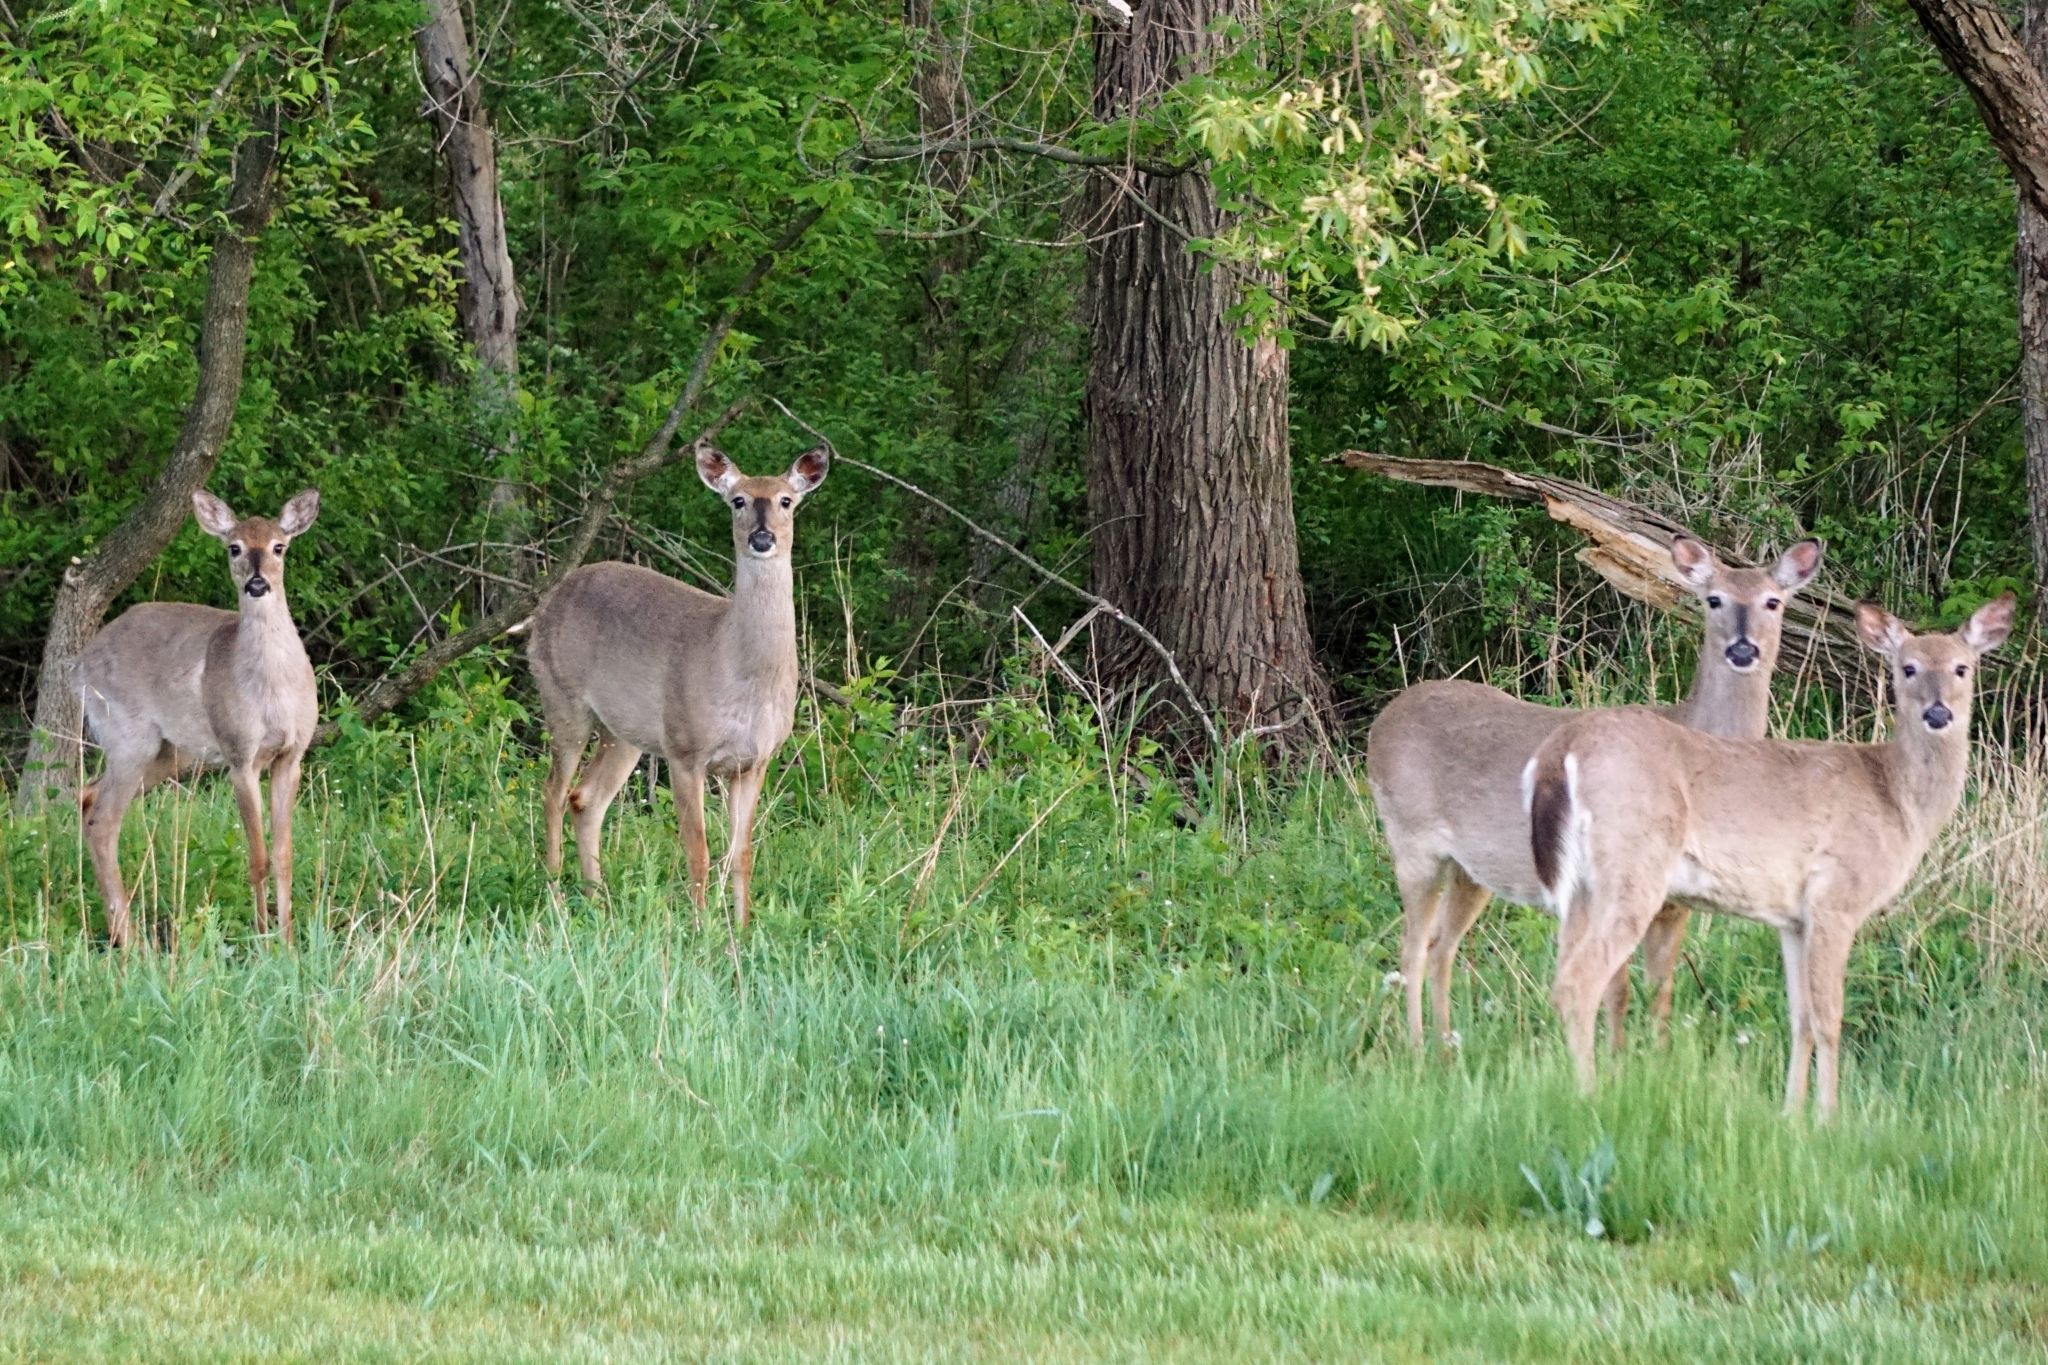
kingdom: Animalia
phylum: Chordata
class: Mammalia
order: Artiodactyla
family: Cervidae
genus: Odocoileus
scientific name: Odocoileus virginianus
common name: White-tailed deer
